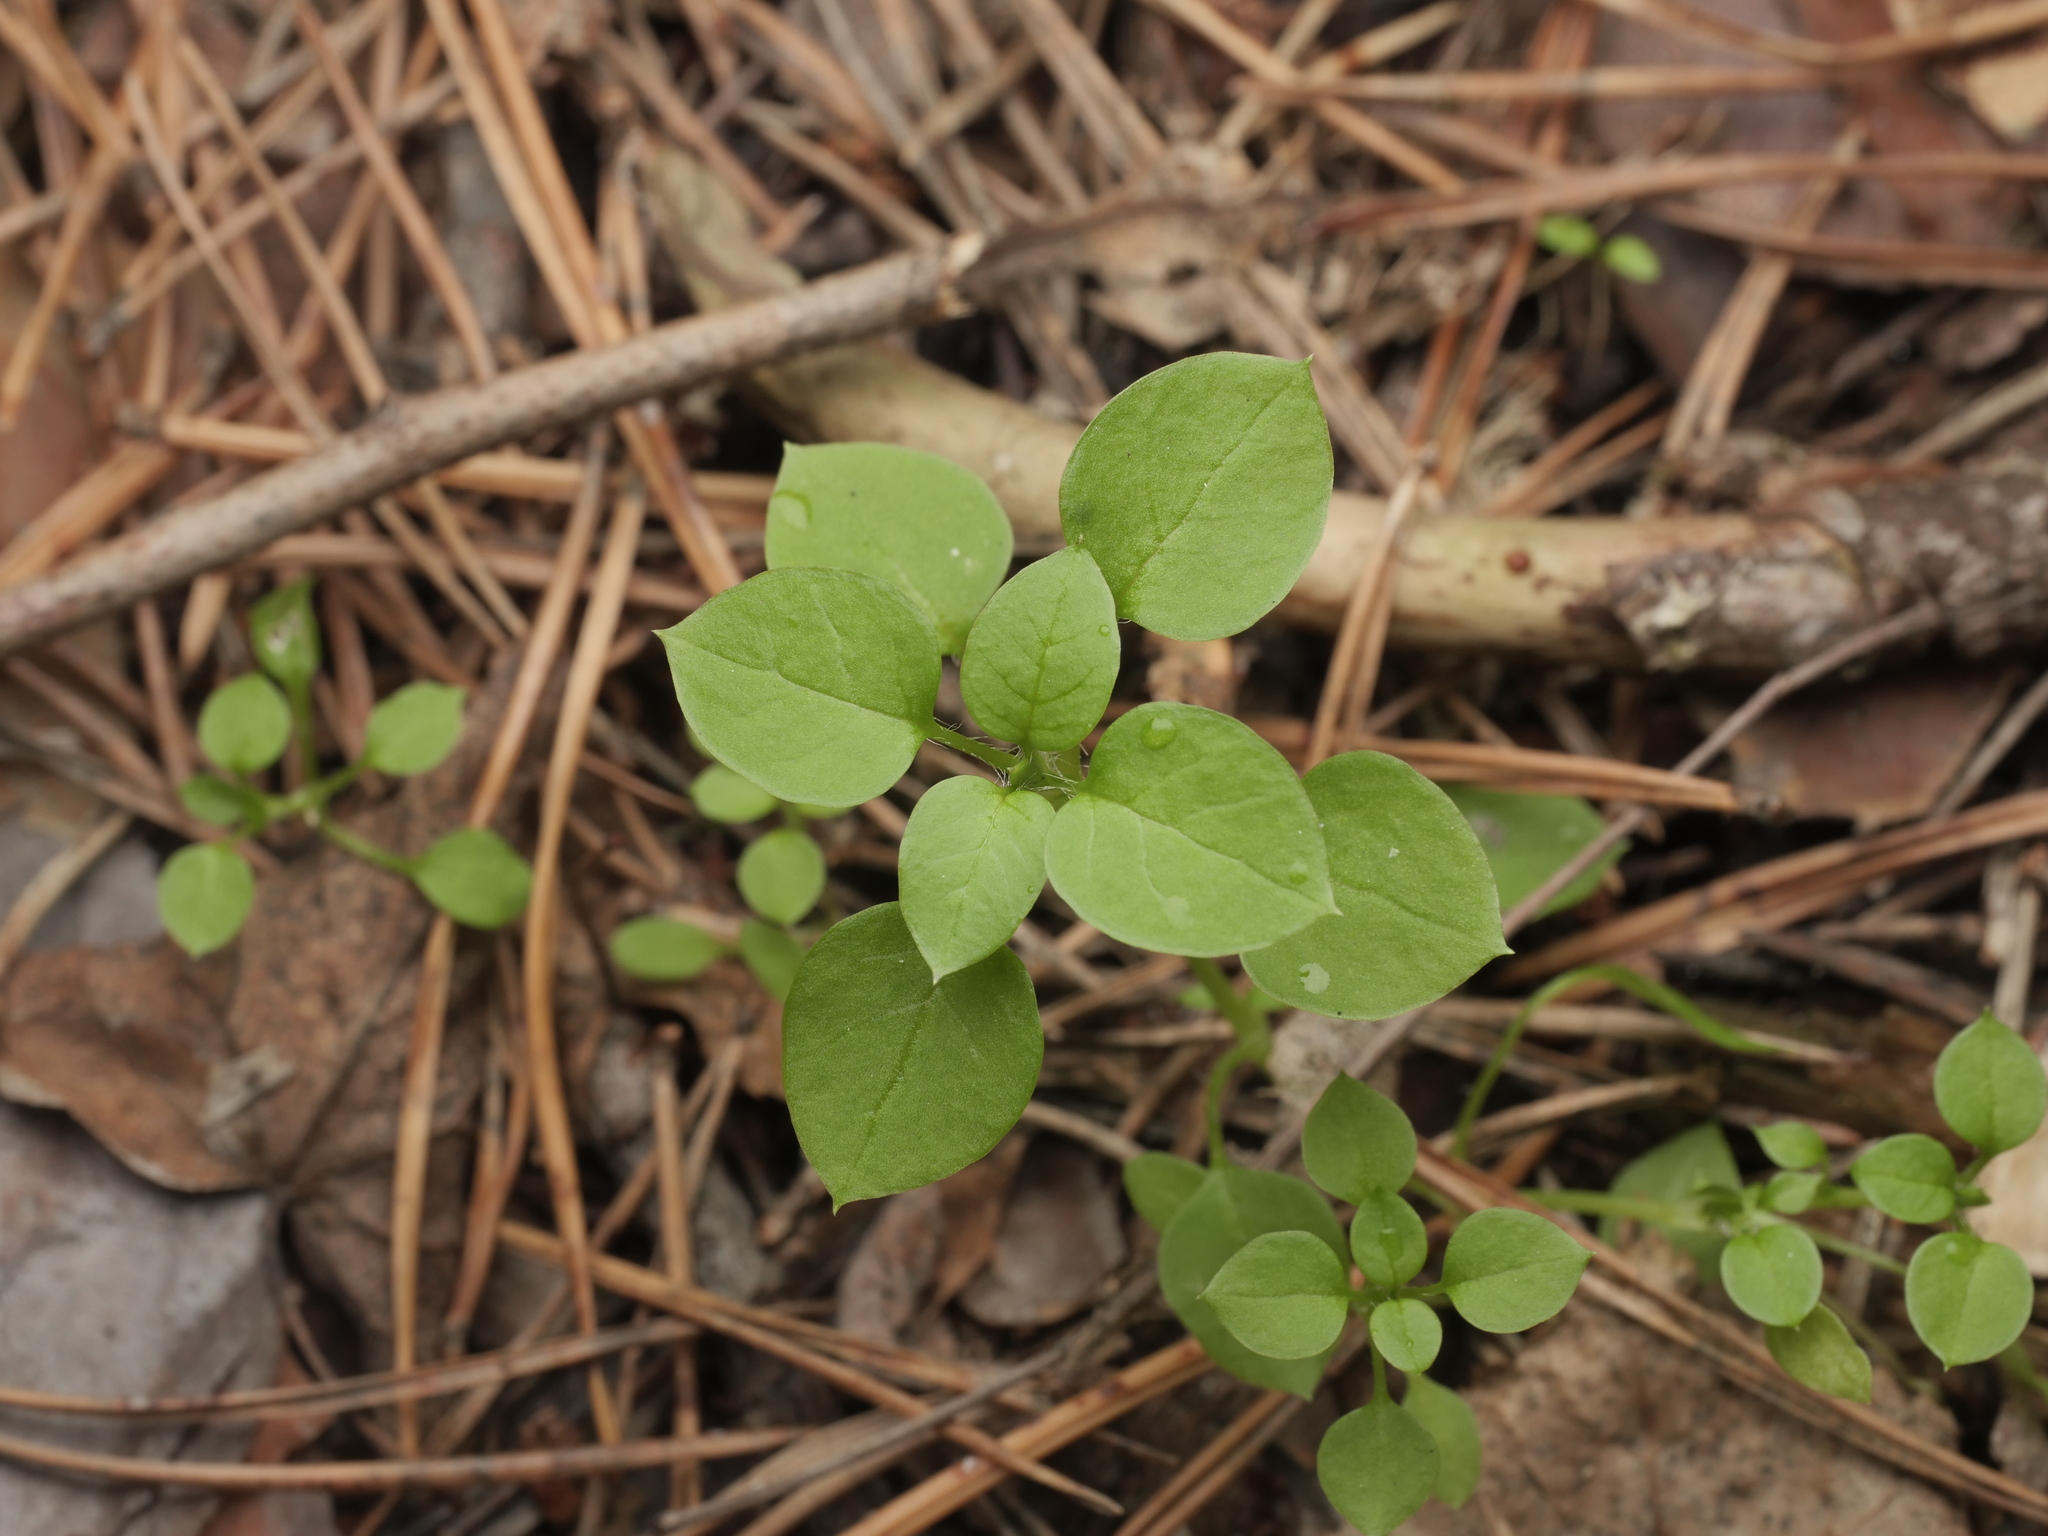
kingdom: Plantae
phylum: Tracheophyta
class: Magnoliopsida
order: Caryophyllales
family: Caryophyllaceae
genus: Stellaria
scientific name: Stellaria media
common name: Common chickweed
